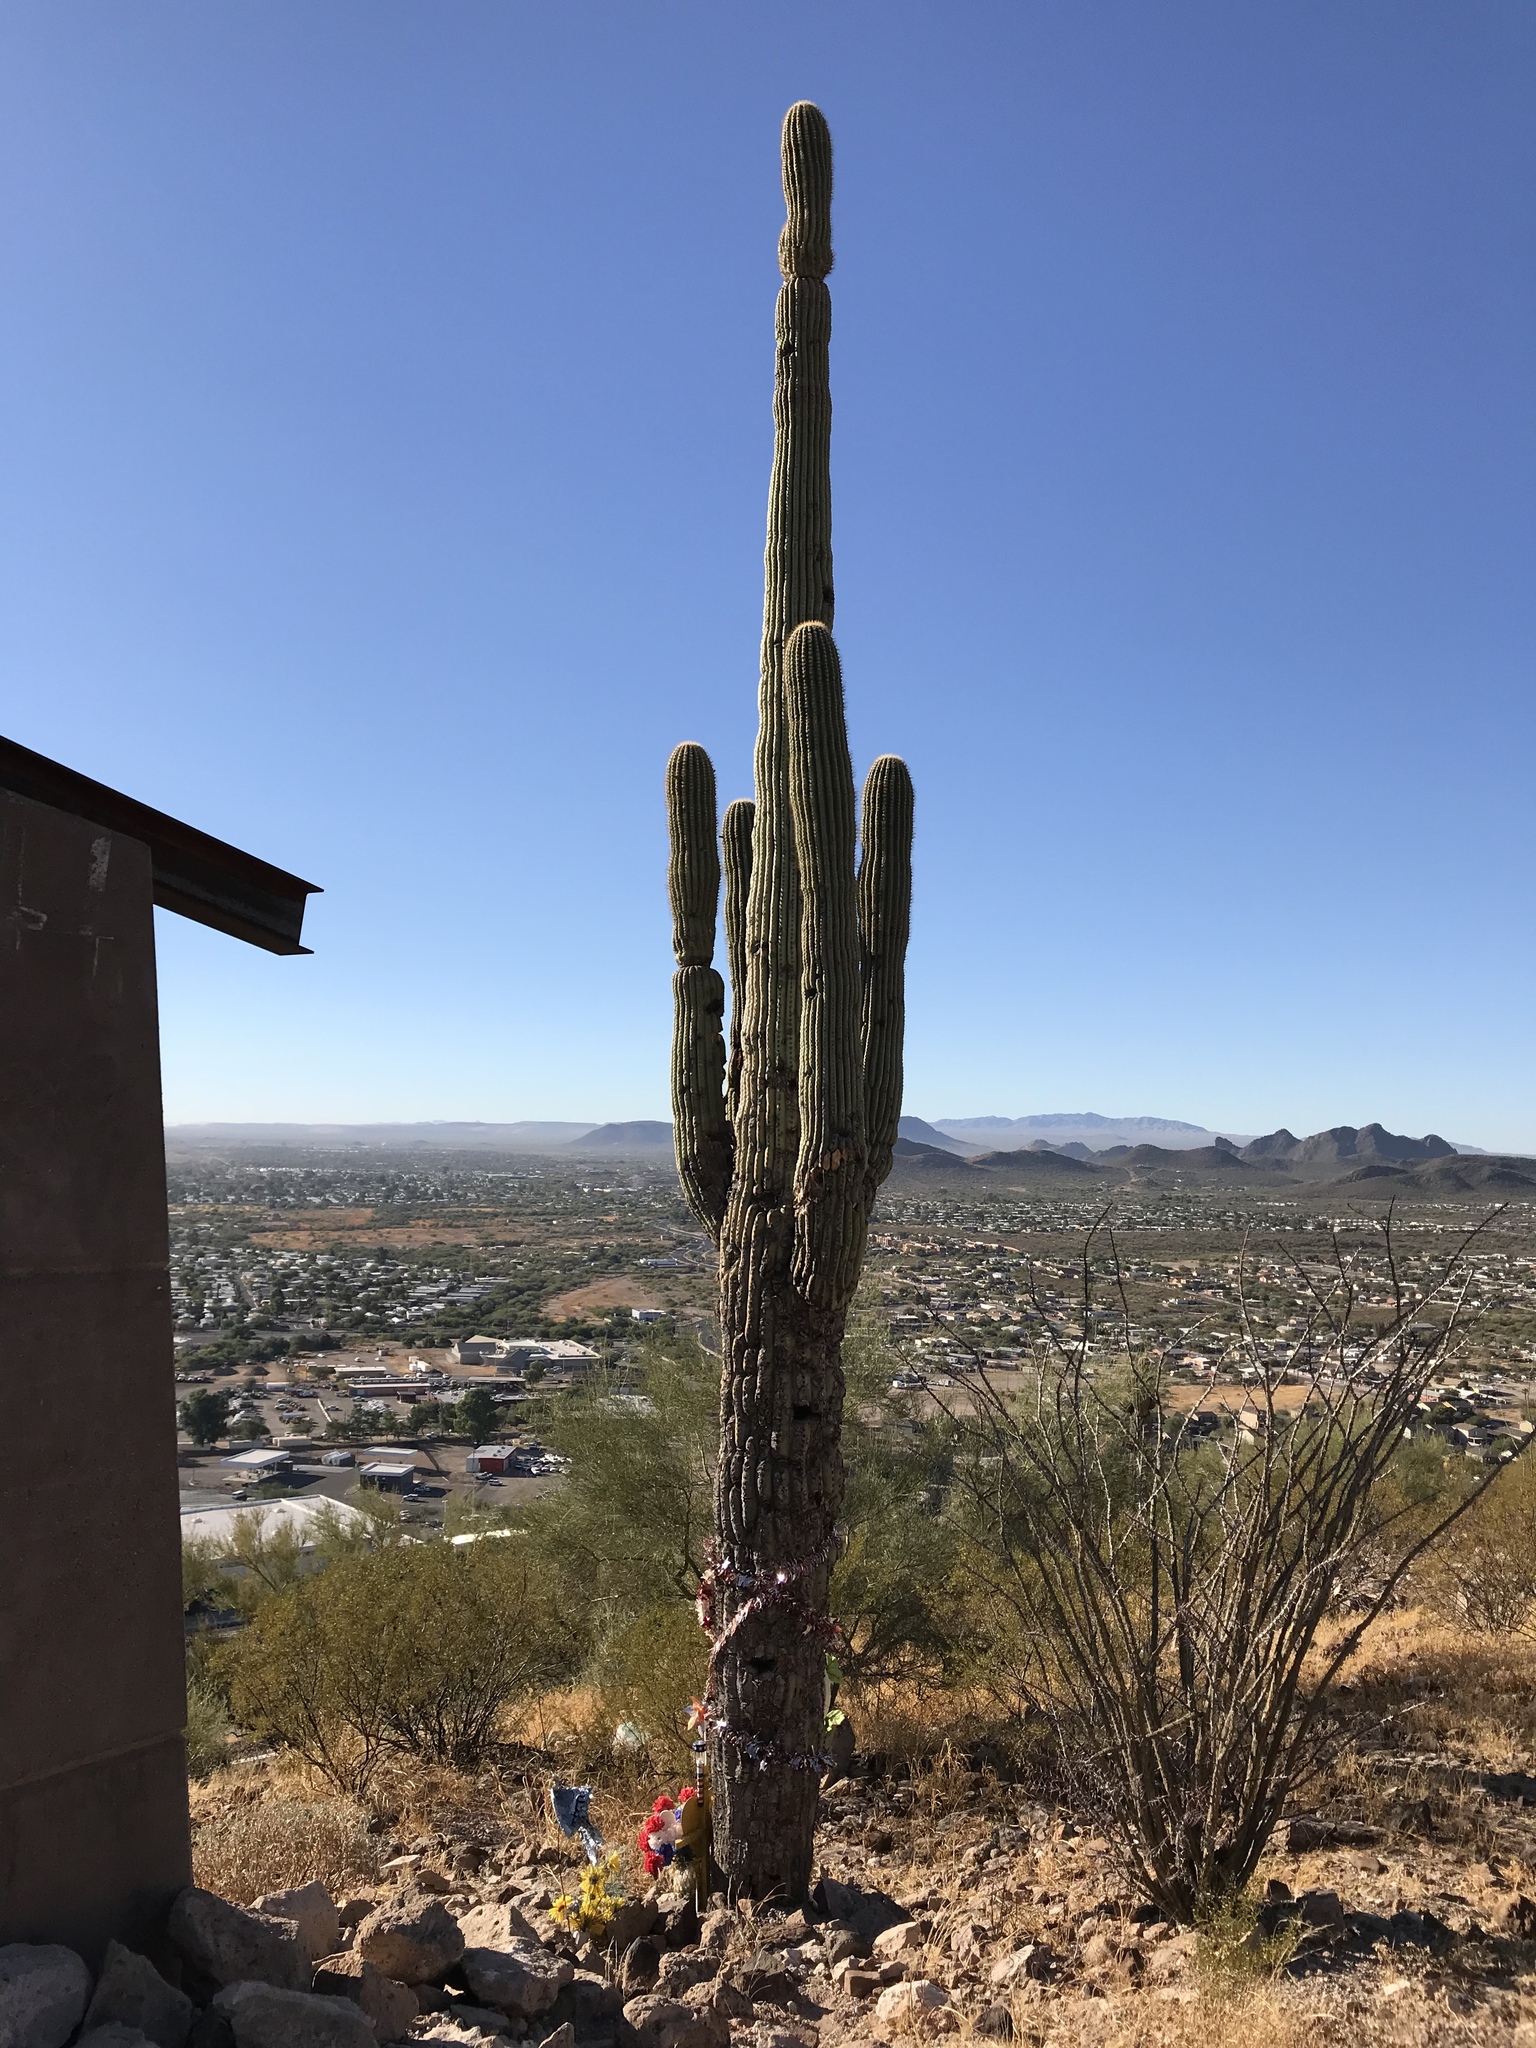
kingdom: Plantae
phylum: Tracheophyta
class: Magnoliopsida
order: Caryophyllales
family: Cactaceae
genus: Carnegiea
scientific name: Carnegiea gigantea
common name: Saguaro
